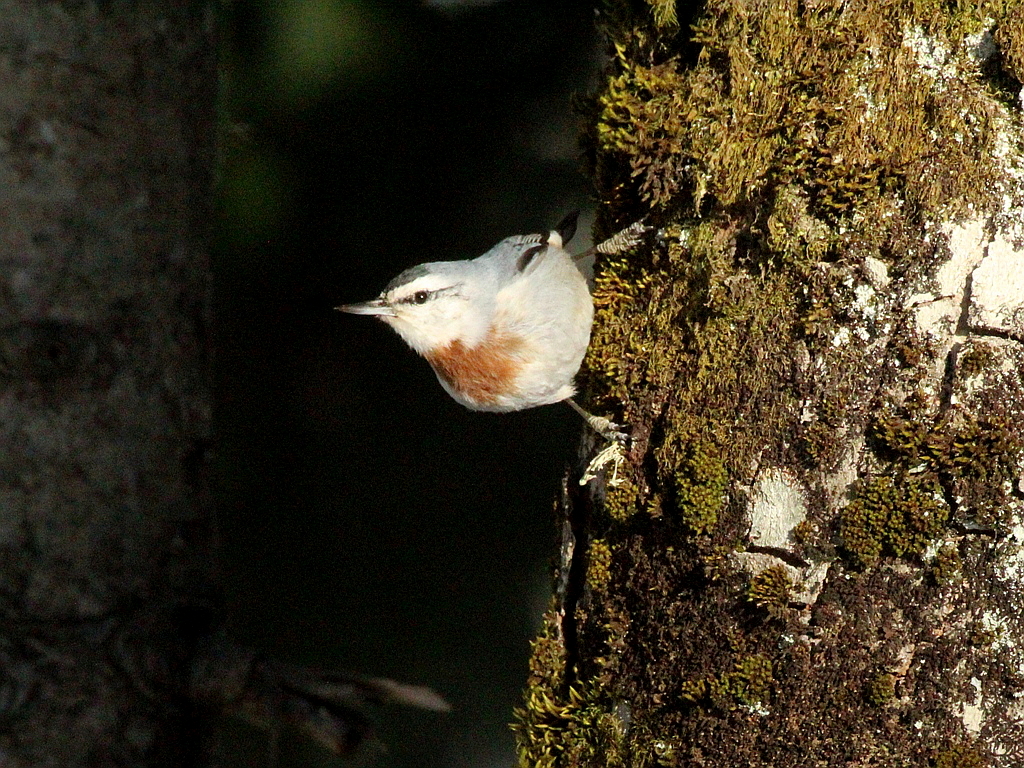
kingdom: Animalia
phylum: Chordata
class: Aves
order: Passeriformes
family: Sittidae
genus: Sitta
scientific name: Sitta krueperi
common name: Krüper's nuthatch
